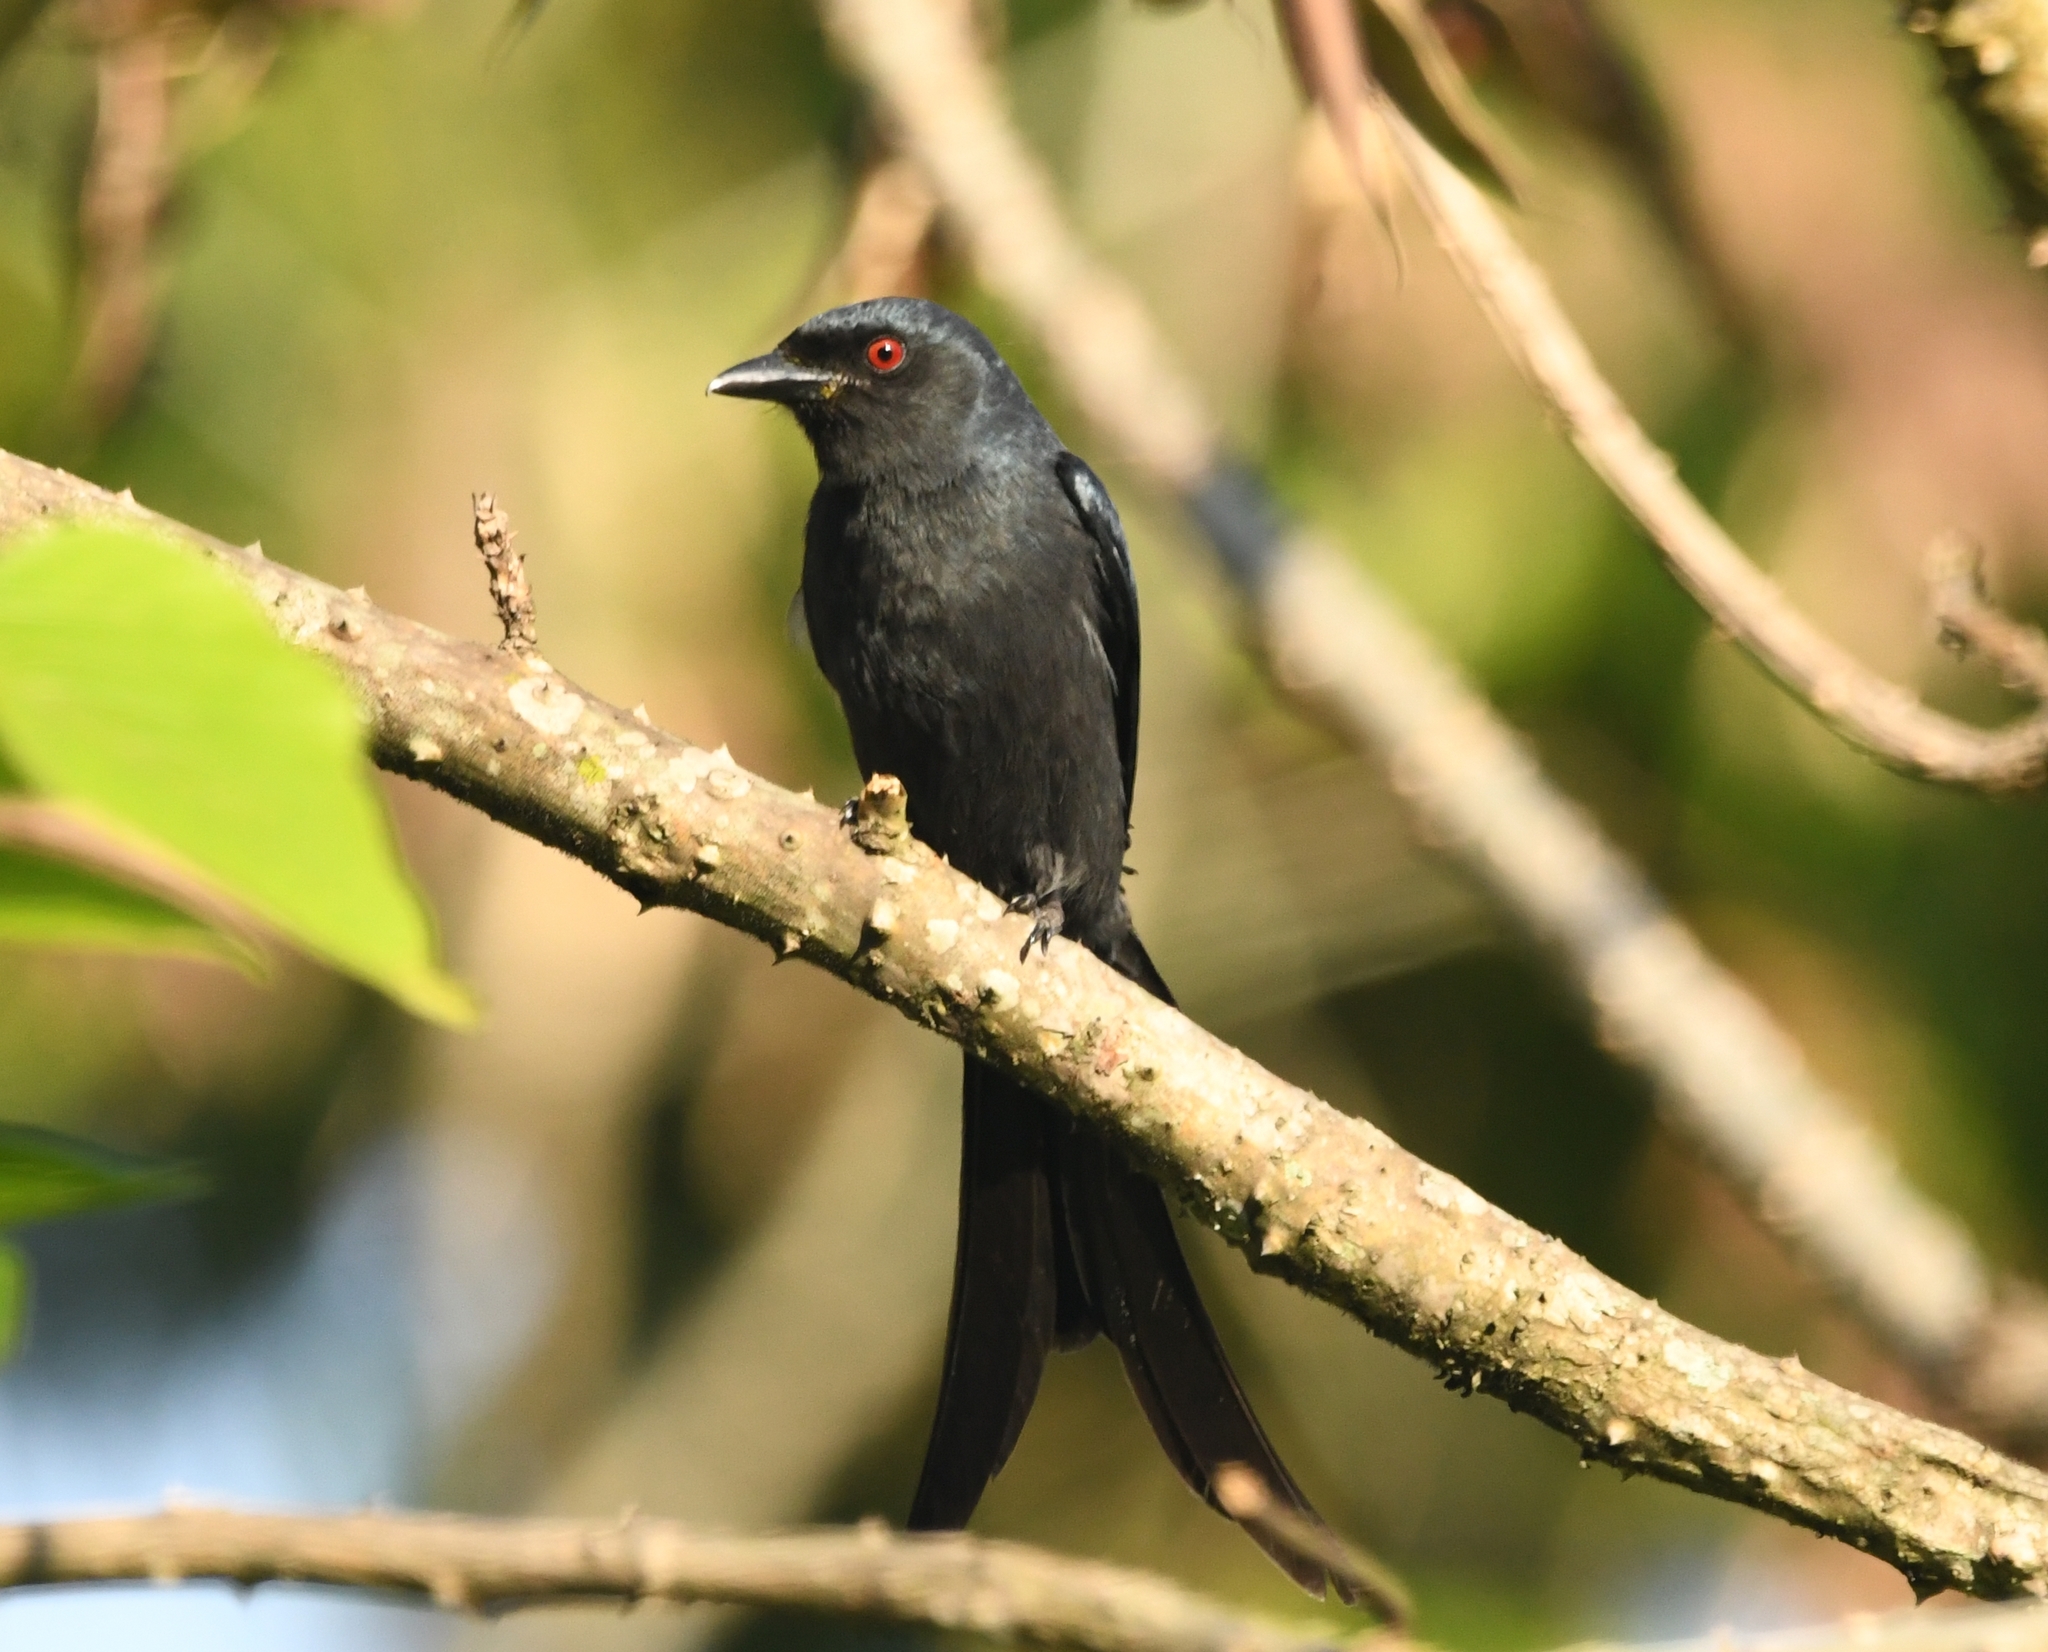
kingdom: Animalia
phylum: Chordata
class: Aves
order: Passeriformes
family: Dicruridae
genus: Dicrurus
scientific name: Dicrurus leucophaeus
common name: Ashy drongo
